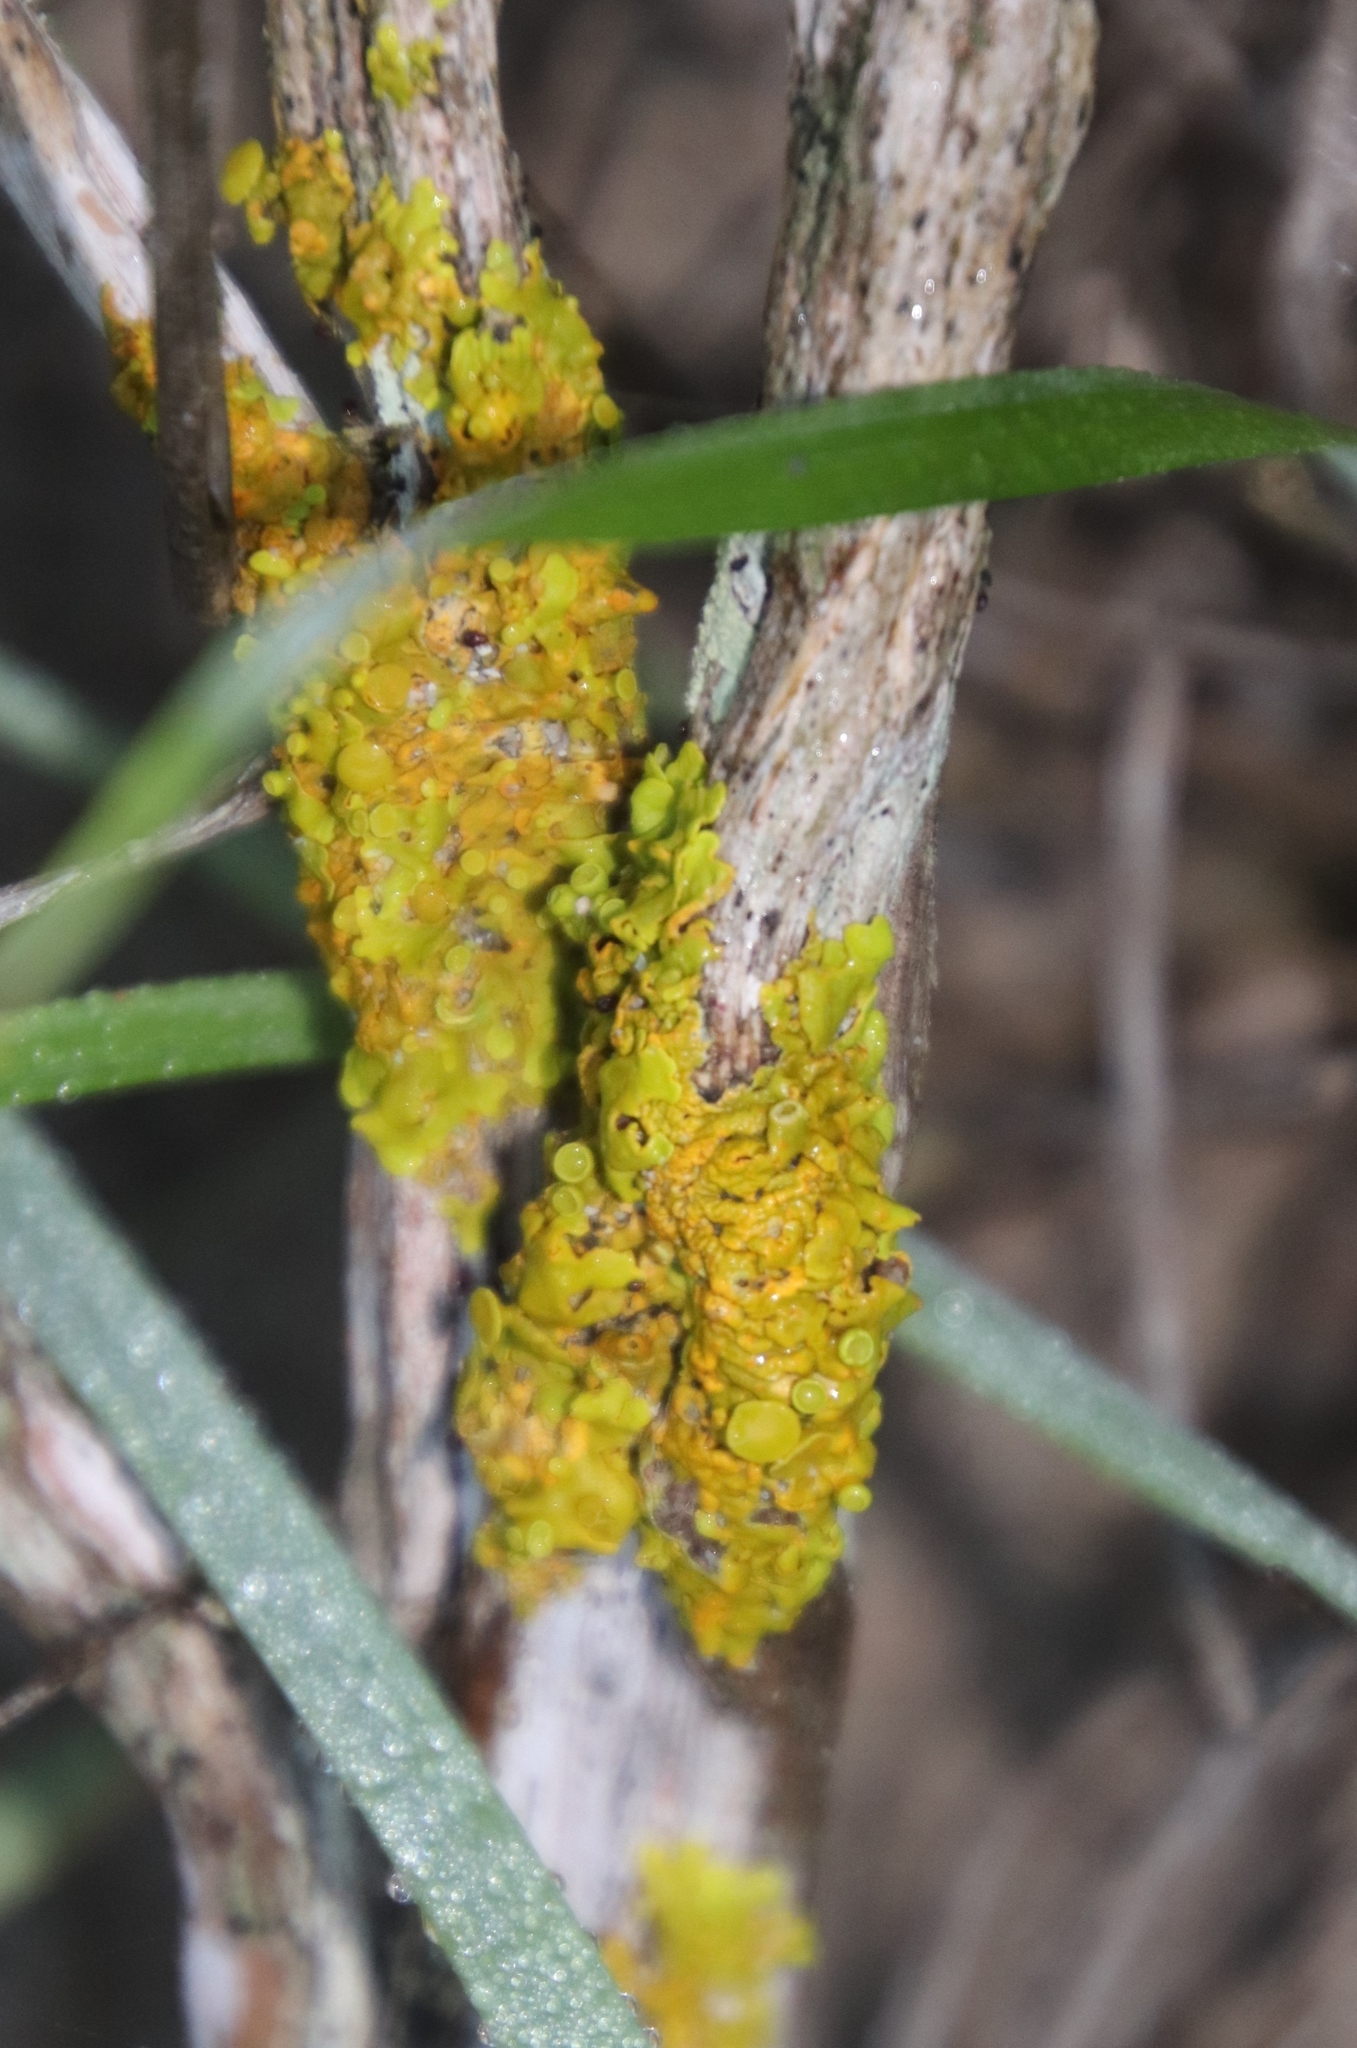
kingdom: Fungi
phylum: Ascomycota
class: Lecanoromycetes
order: Teloschistales
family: Teloschistaceae
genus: Dufourea
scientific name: Dufourea turbinata
